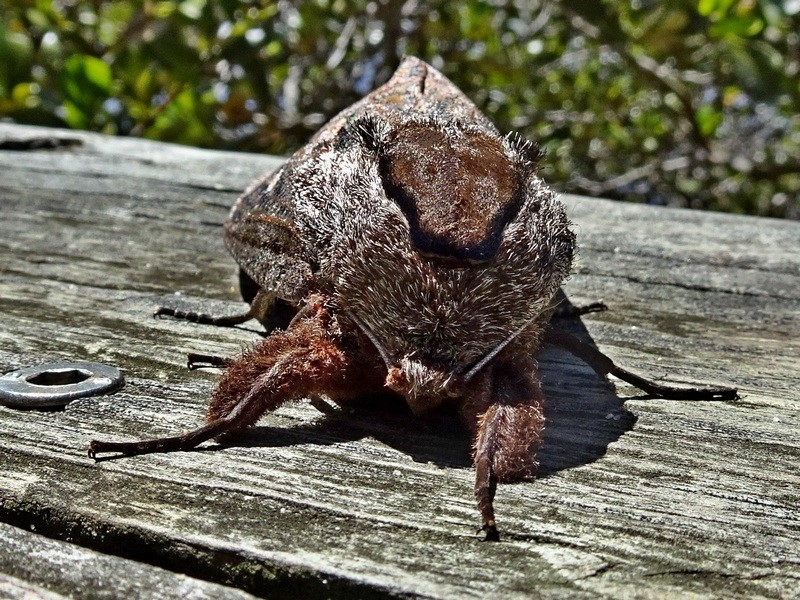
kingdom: Animalia
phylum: Arthropoda
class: Insecta
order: Lepidoptera
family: Cossidae
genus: Endoxyla
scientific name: Endoxyla encalypti
